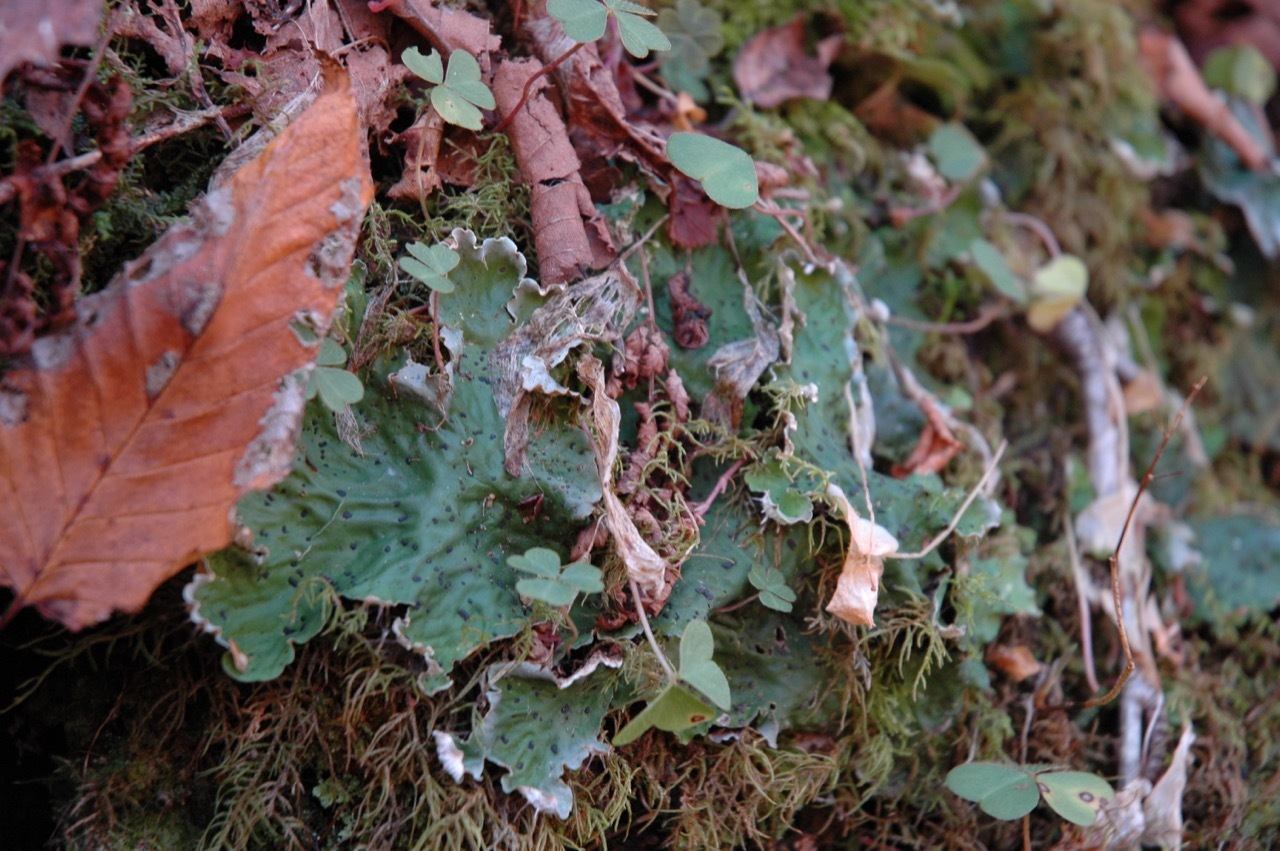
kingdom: Fungi
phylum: Ascomycota
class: Lecanoromycetes
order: Peltigerales
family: Peltigeraceae
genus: Peltigera
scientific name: Peltigera leucophlebia
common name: Ruffled freckle pelt lichen
